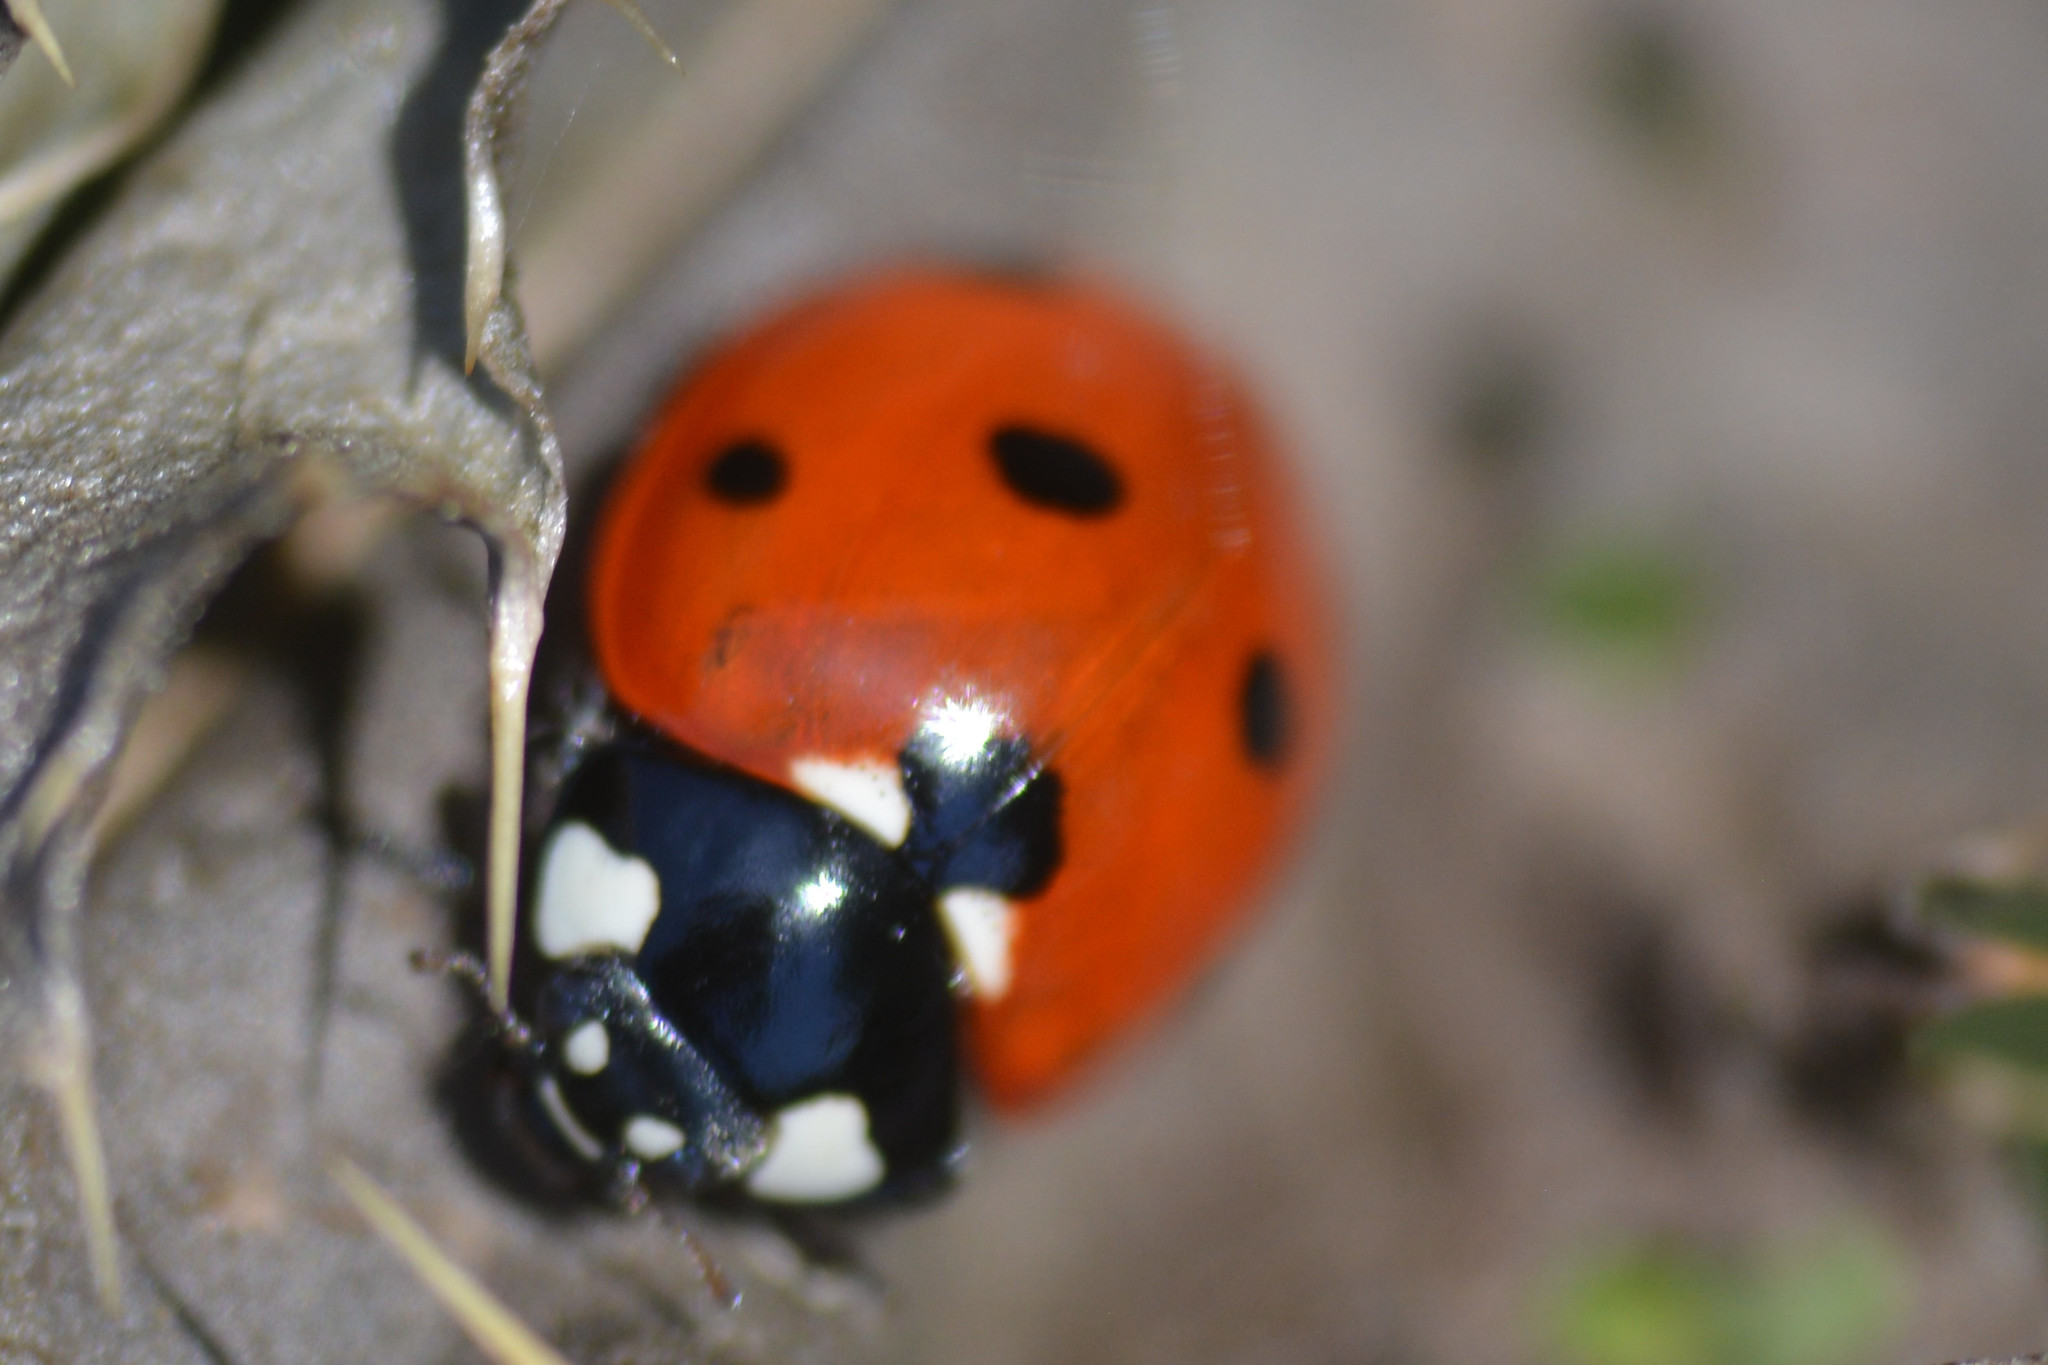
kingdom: Animalia
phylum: Arthropoda
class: Insecta
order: Coleoptera
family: Coccinellidae
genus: Coccinella
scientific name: Coccinella septempunctata
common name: Sevenspotted lady beetle
